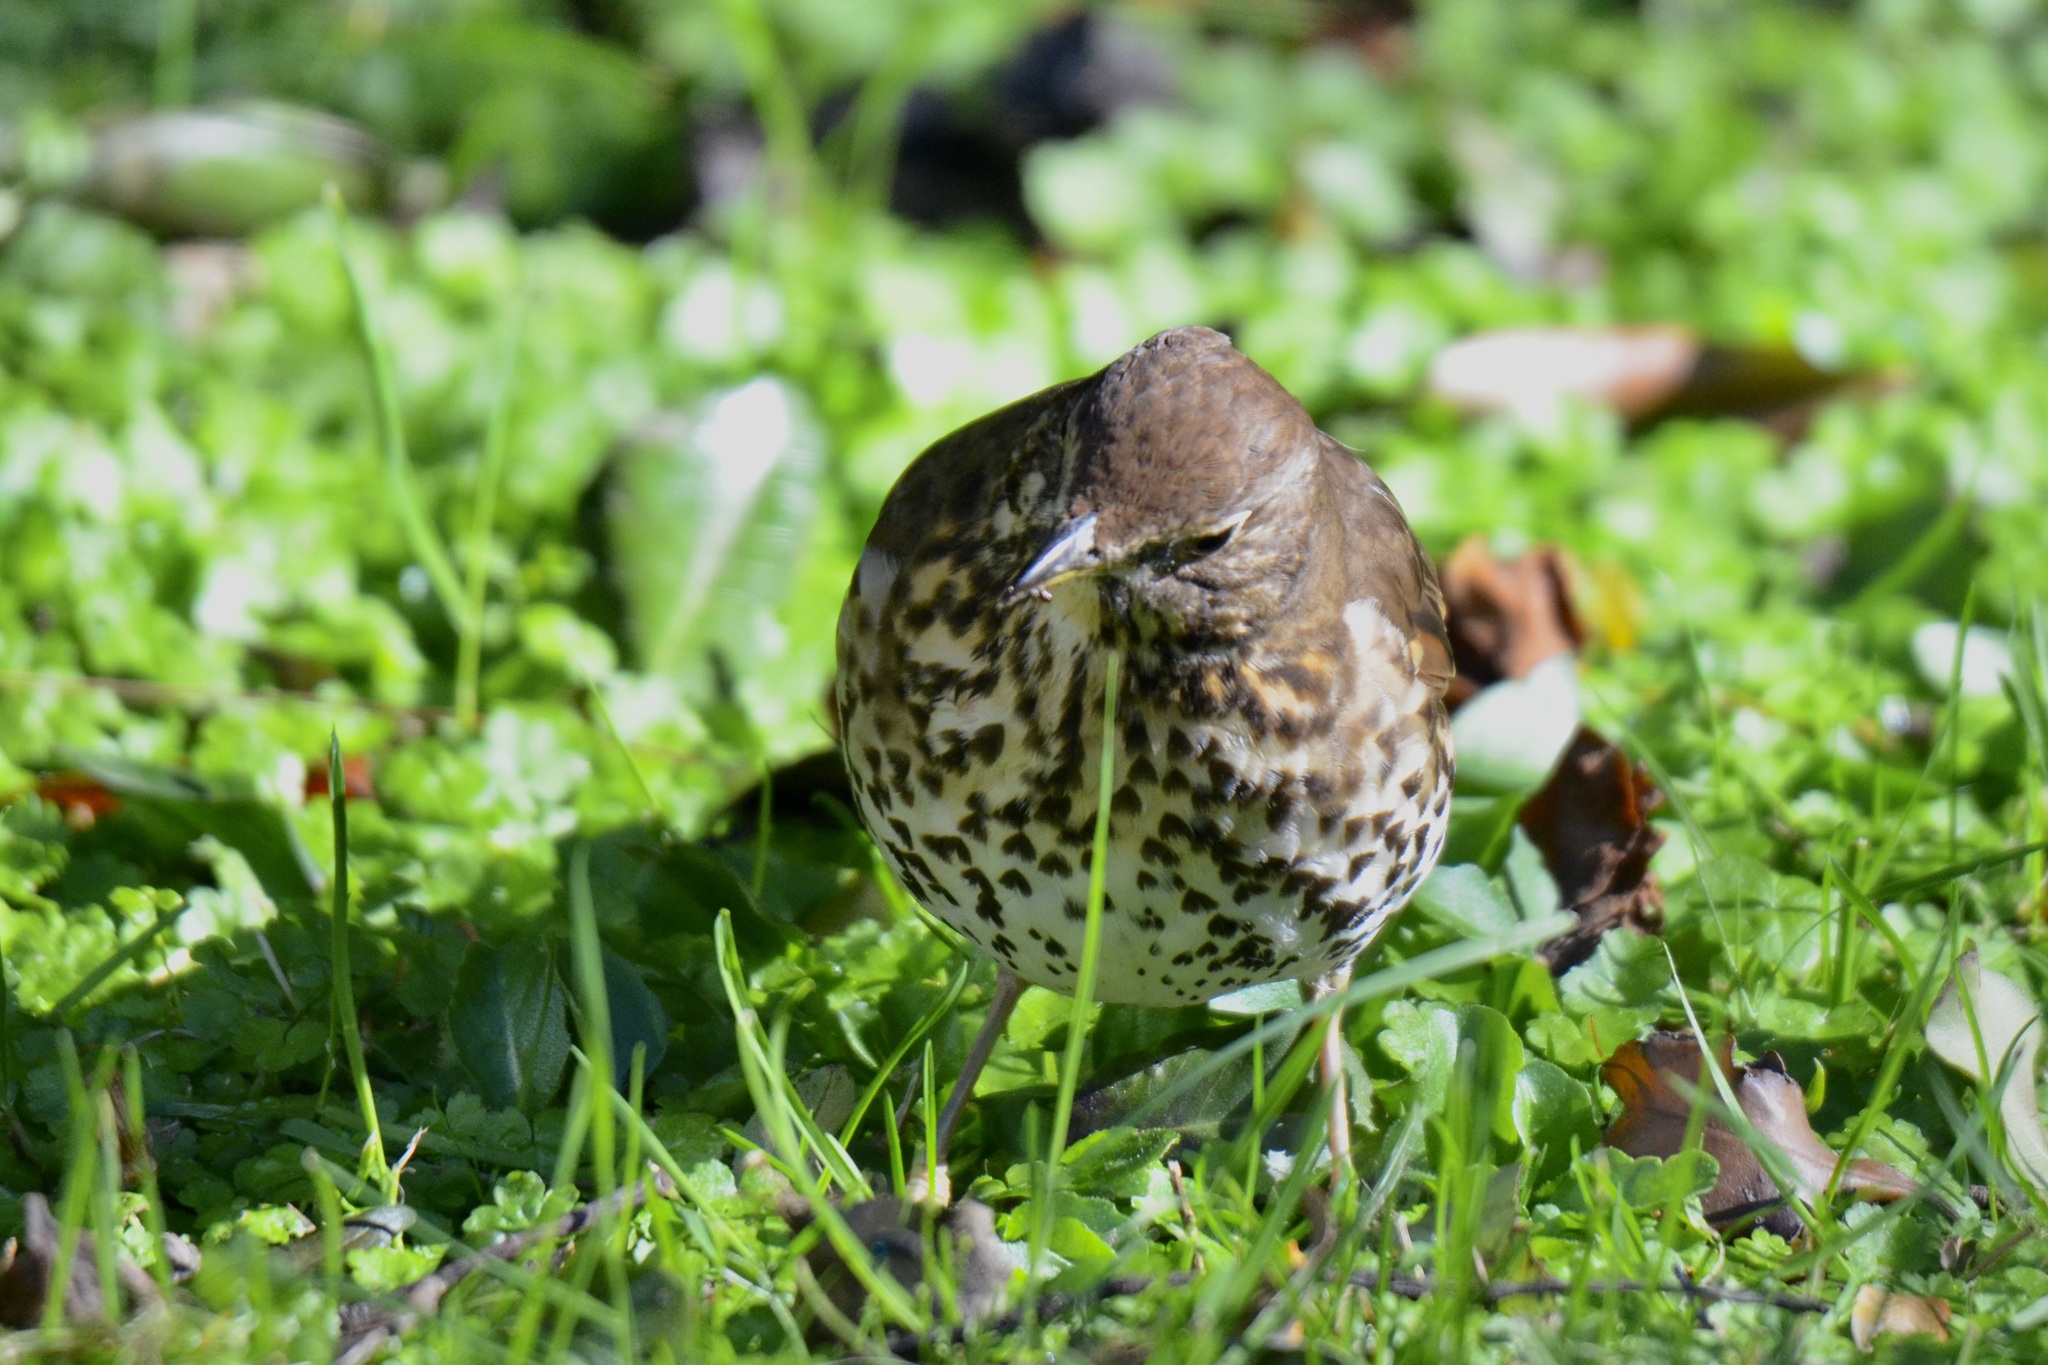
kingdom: Animalia
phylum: Chordata
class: Aves
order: Passeriformes
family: Turdidae
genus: Turdus
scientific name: Turdus philomelos
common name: Song thrush
